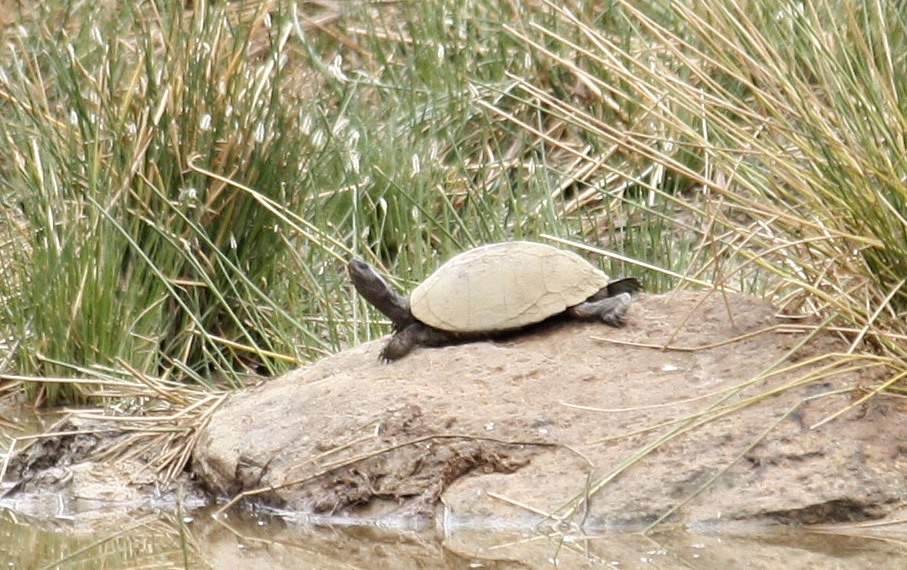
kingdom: Animalia
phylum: Chordata
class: Testudines
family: Pelomedusidae
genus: Pelusios
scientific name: Pelusios sinuatus
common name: Serrated hinged terrapin
